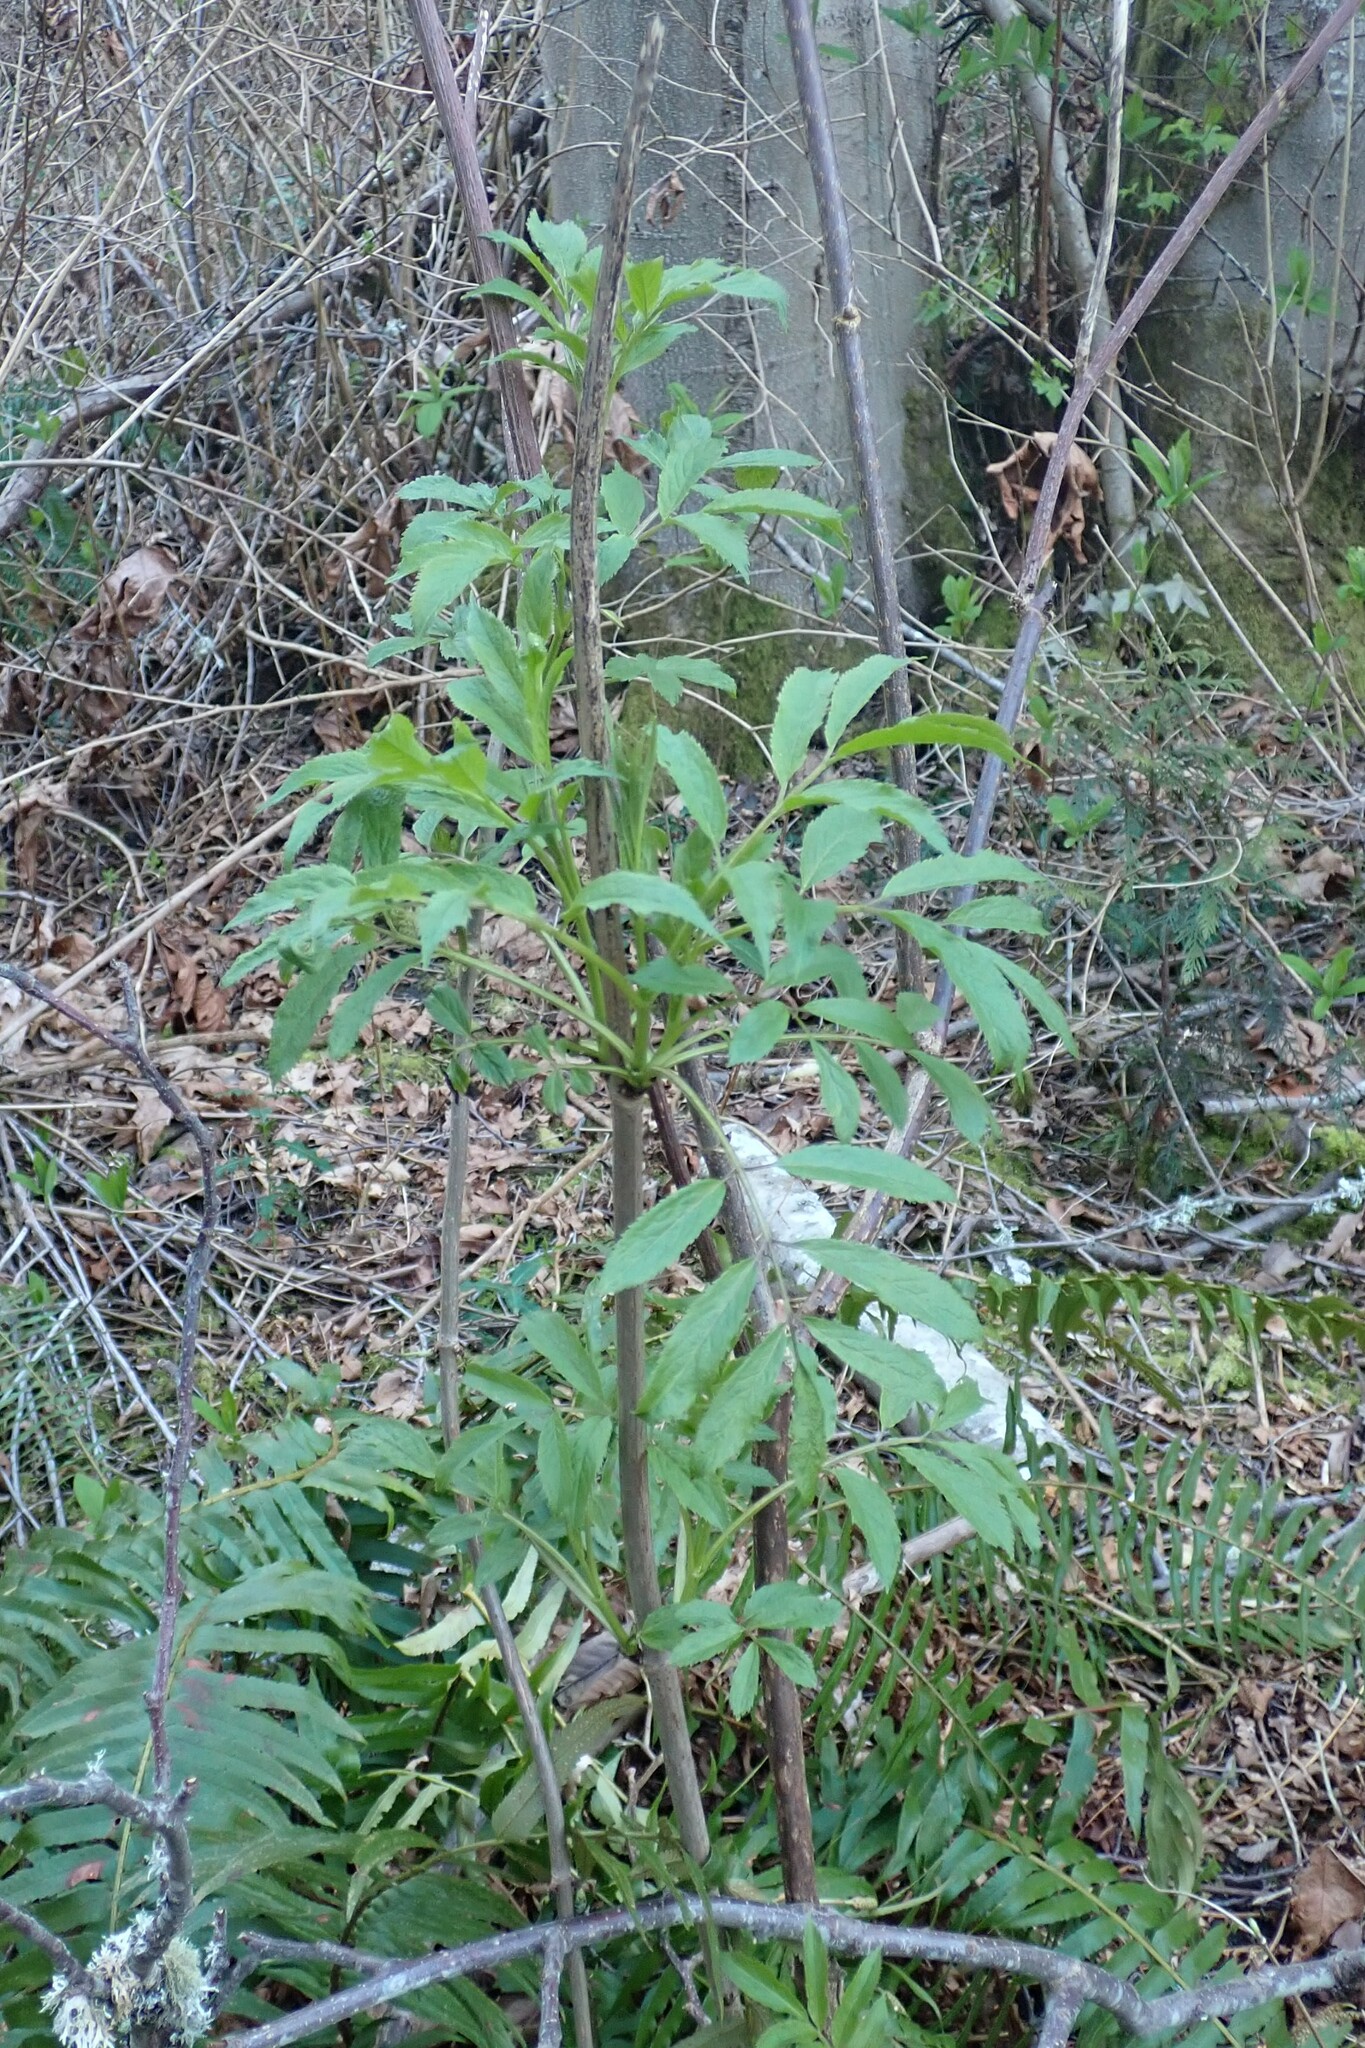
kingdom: Plantae
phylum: Tracheophyta
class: Magnoliopsida
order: Dipsacales
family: Viburnaceae
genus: Sambucus
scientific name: Sambucus racemosa
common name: Red-berried elder
